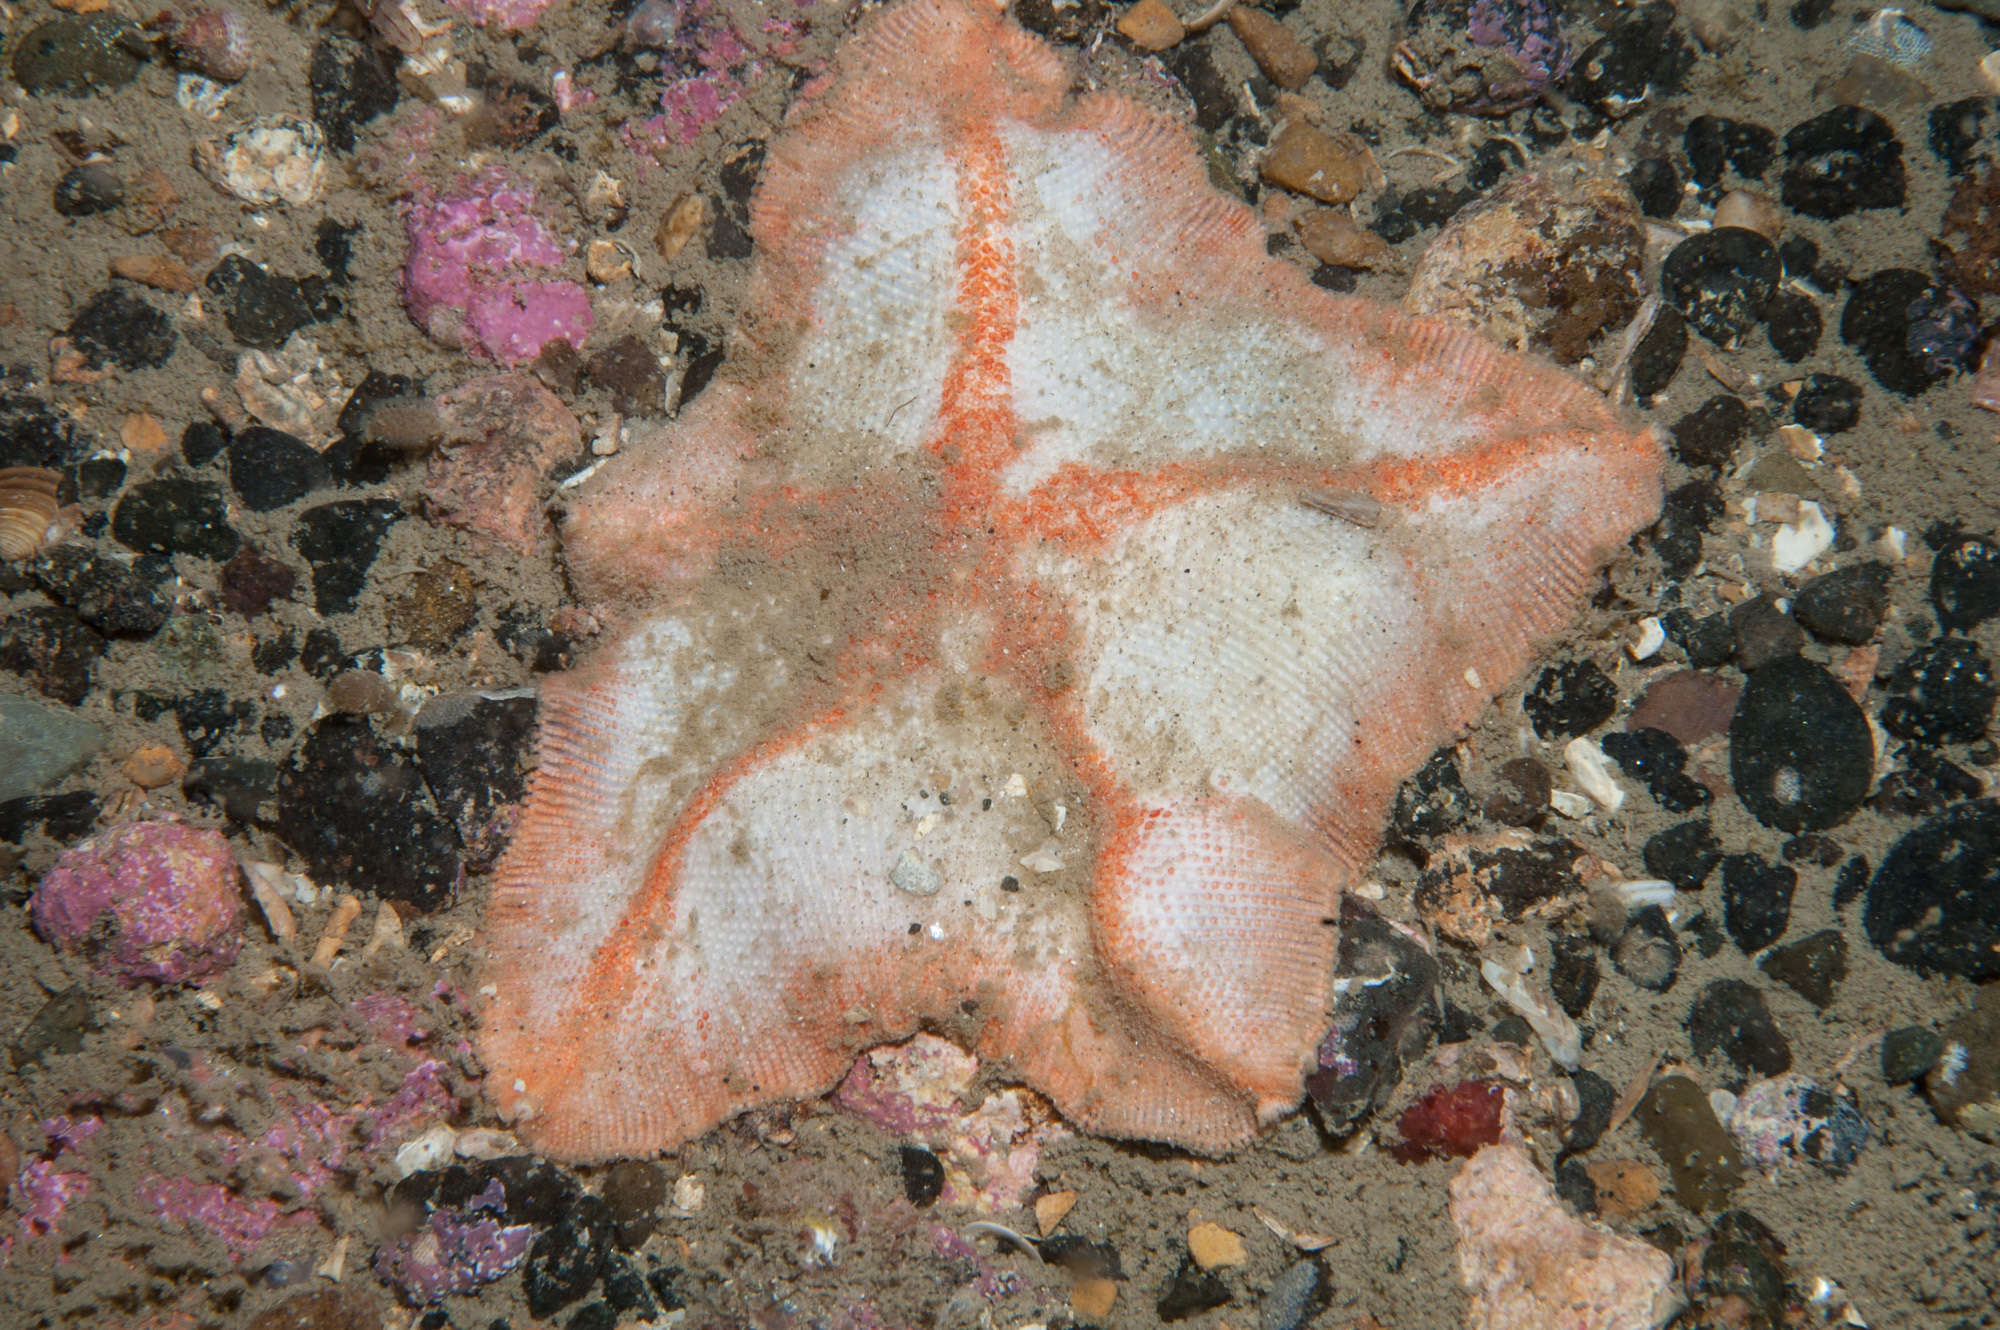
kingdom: Animalia
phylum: Echinodermata
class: Asteroidea
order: Valvatida
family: Anseropodidae
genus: Anseropoda
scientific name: Anseropoda placenta
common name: Goose foot starfish
